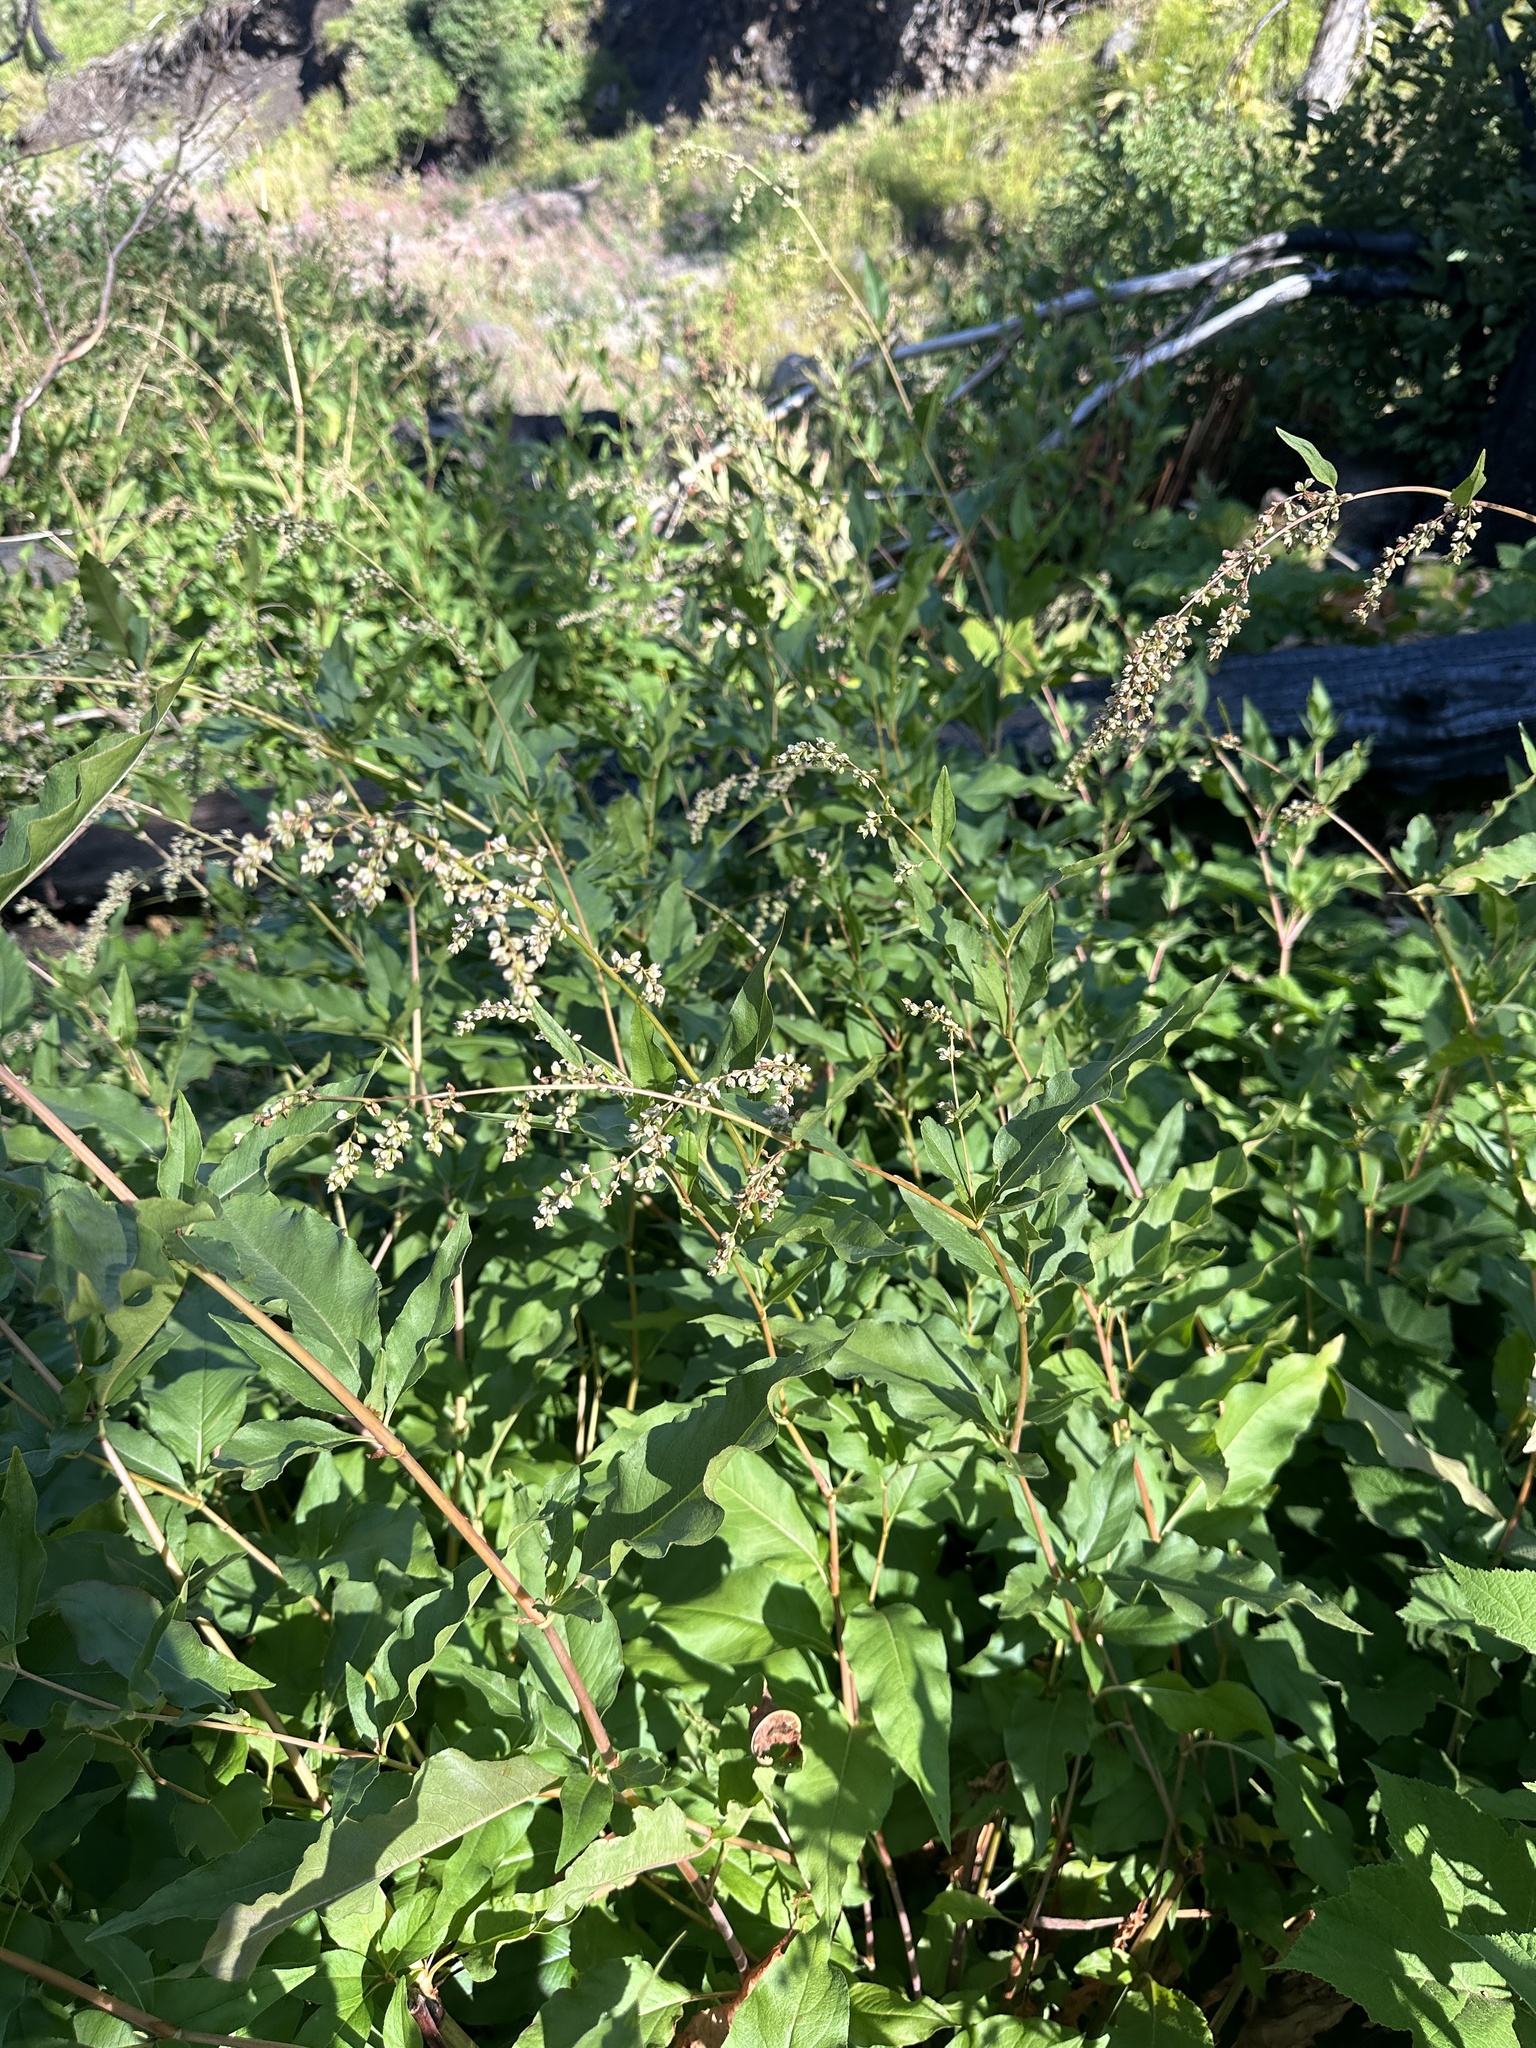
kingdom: Plantae
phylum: Tracheophyta
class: Magnoliopsida
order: Caryophyllales
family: Polygonaceae
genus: Koenigia
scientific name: Koenigia phytolaccifolia
